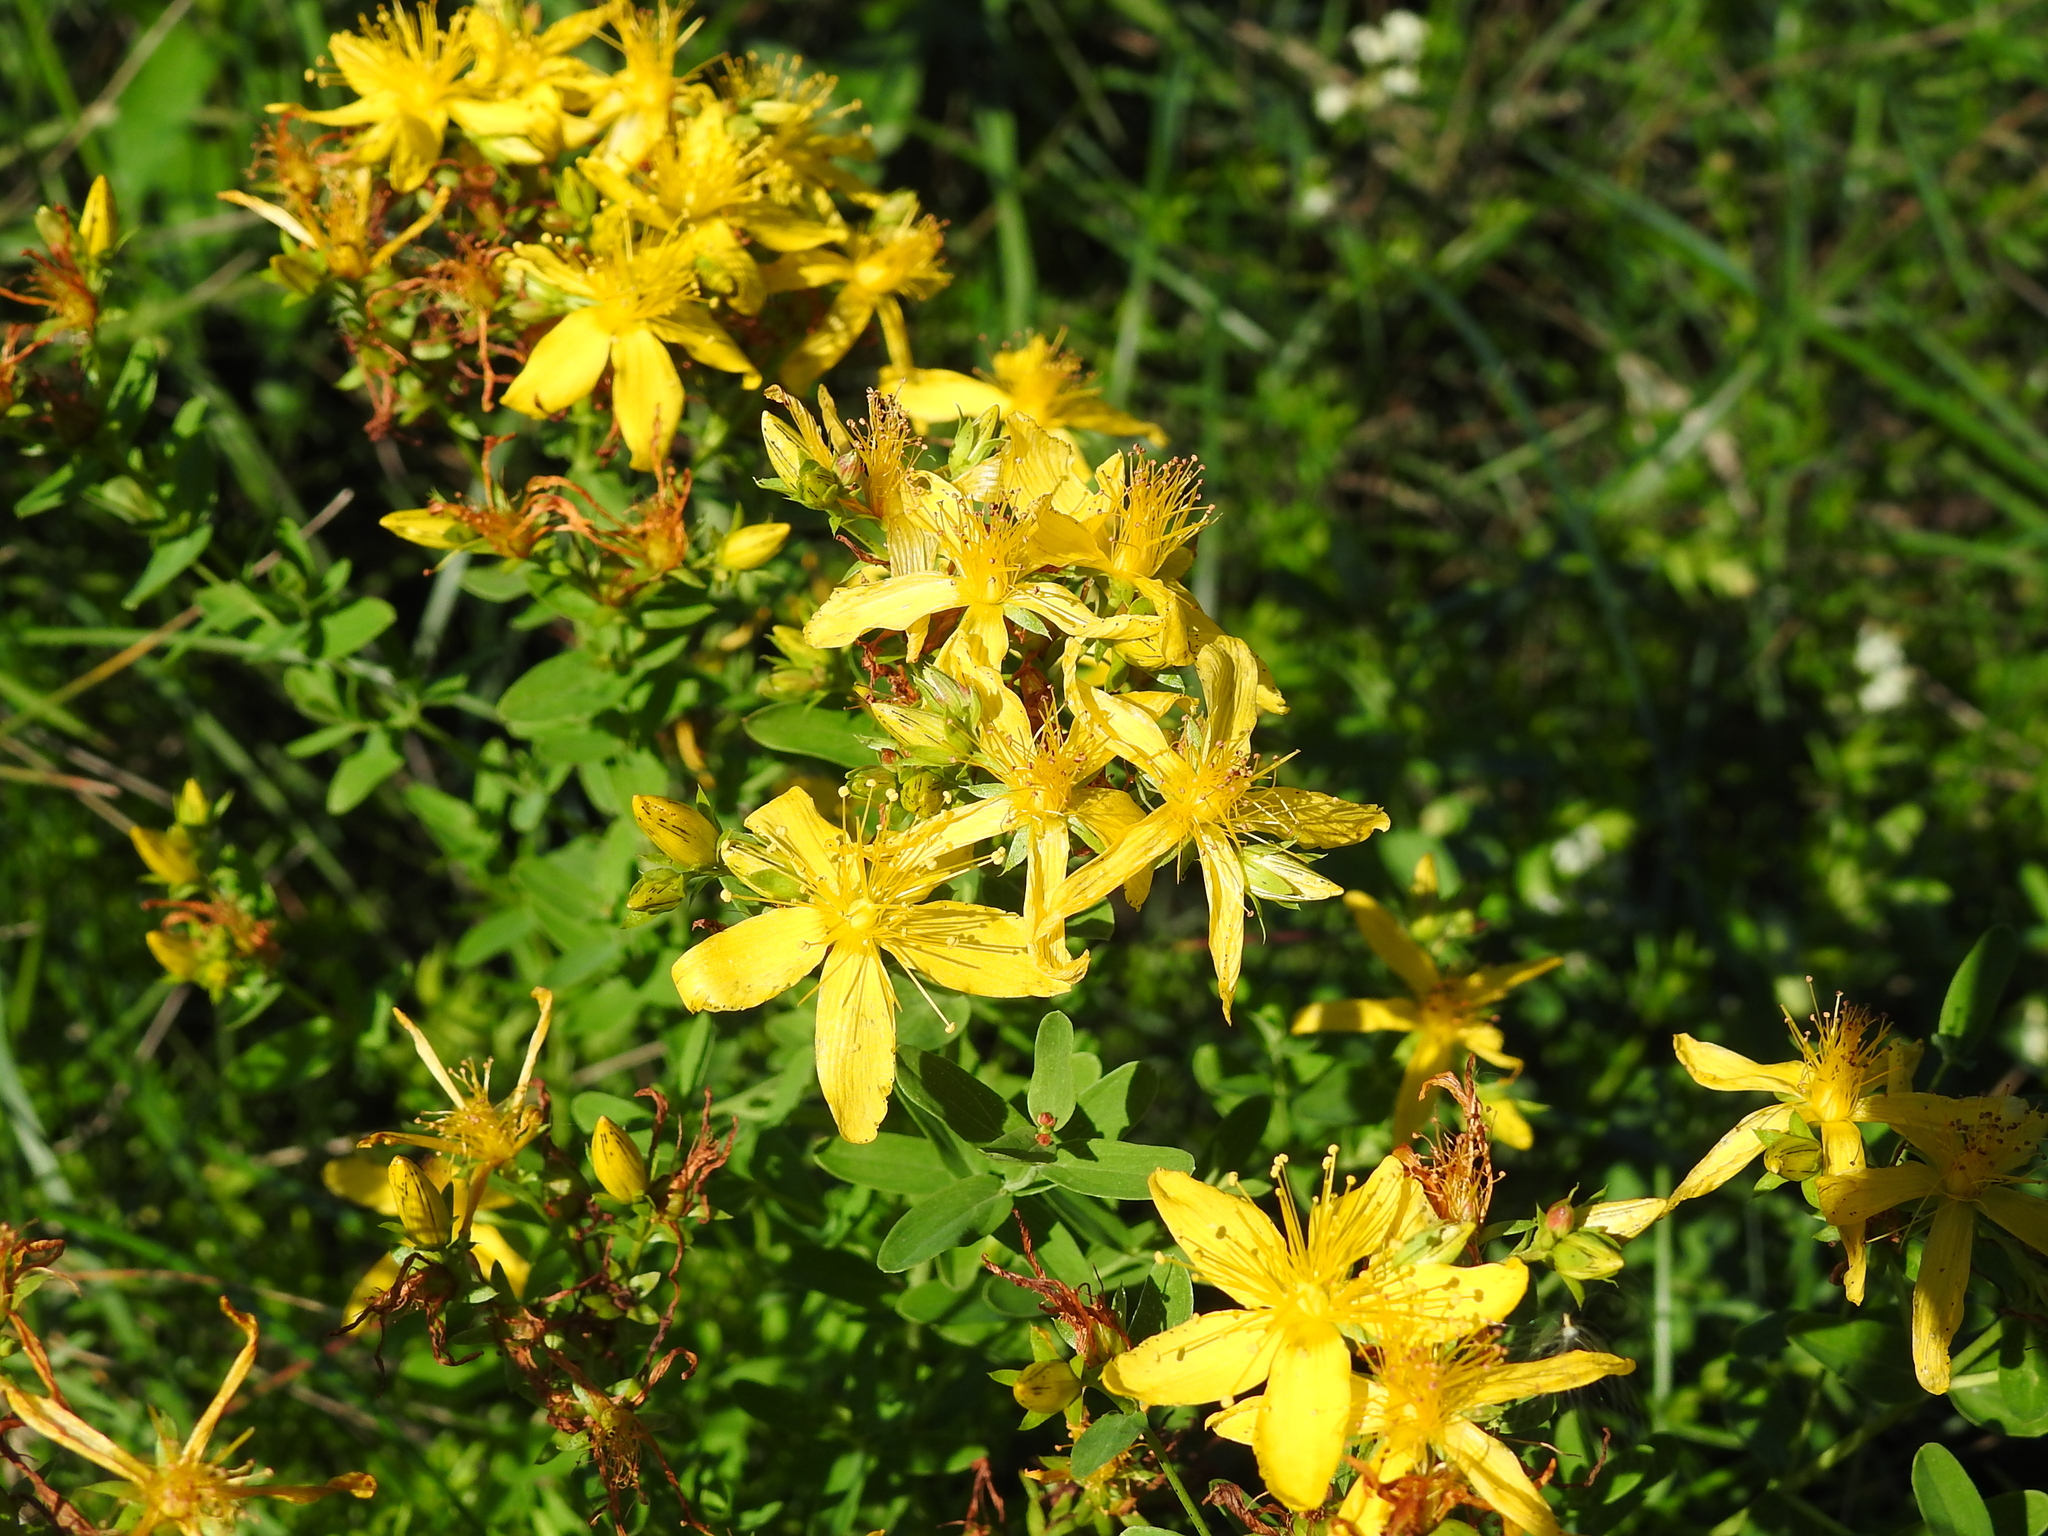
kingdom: Plantae
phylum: Tracheophyta
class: Magnoliopsida
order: Malpighiales
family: Hypericaceae
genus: Hypericum
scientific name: Hypericum perforatum
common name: Common st. johnswort
